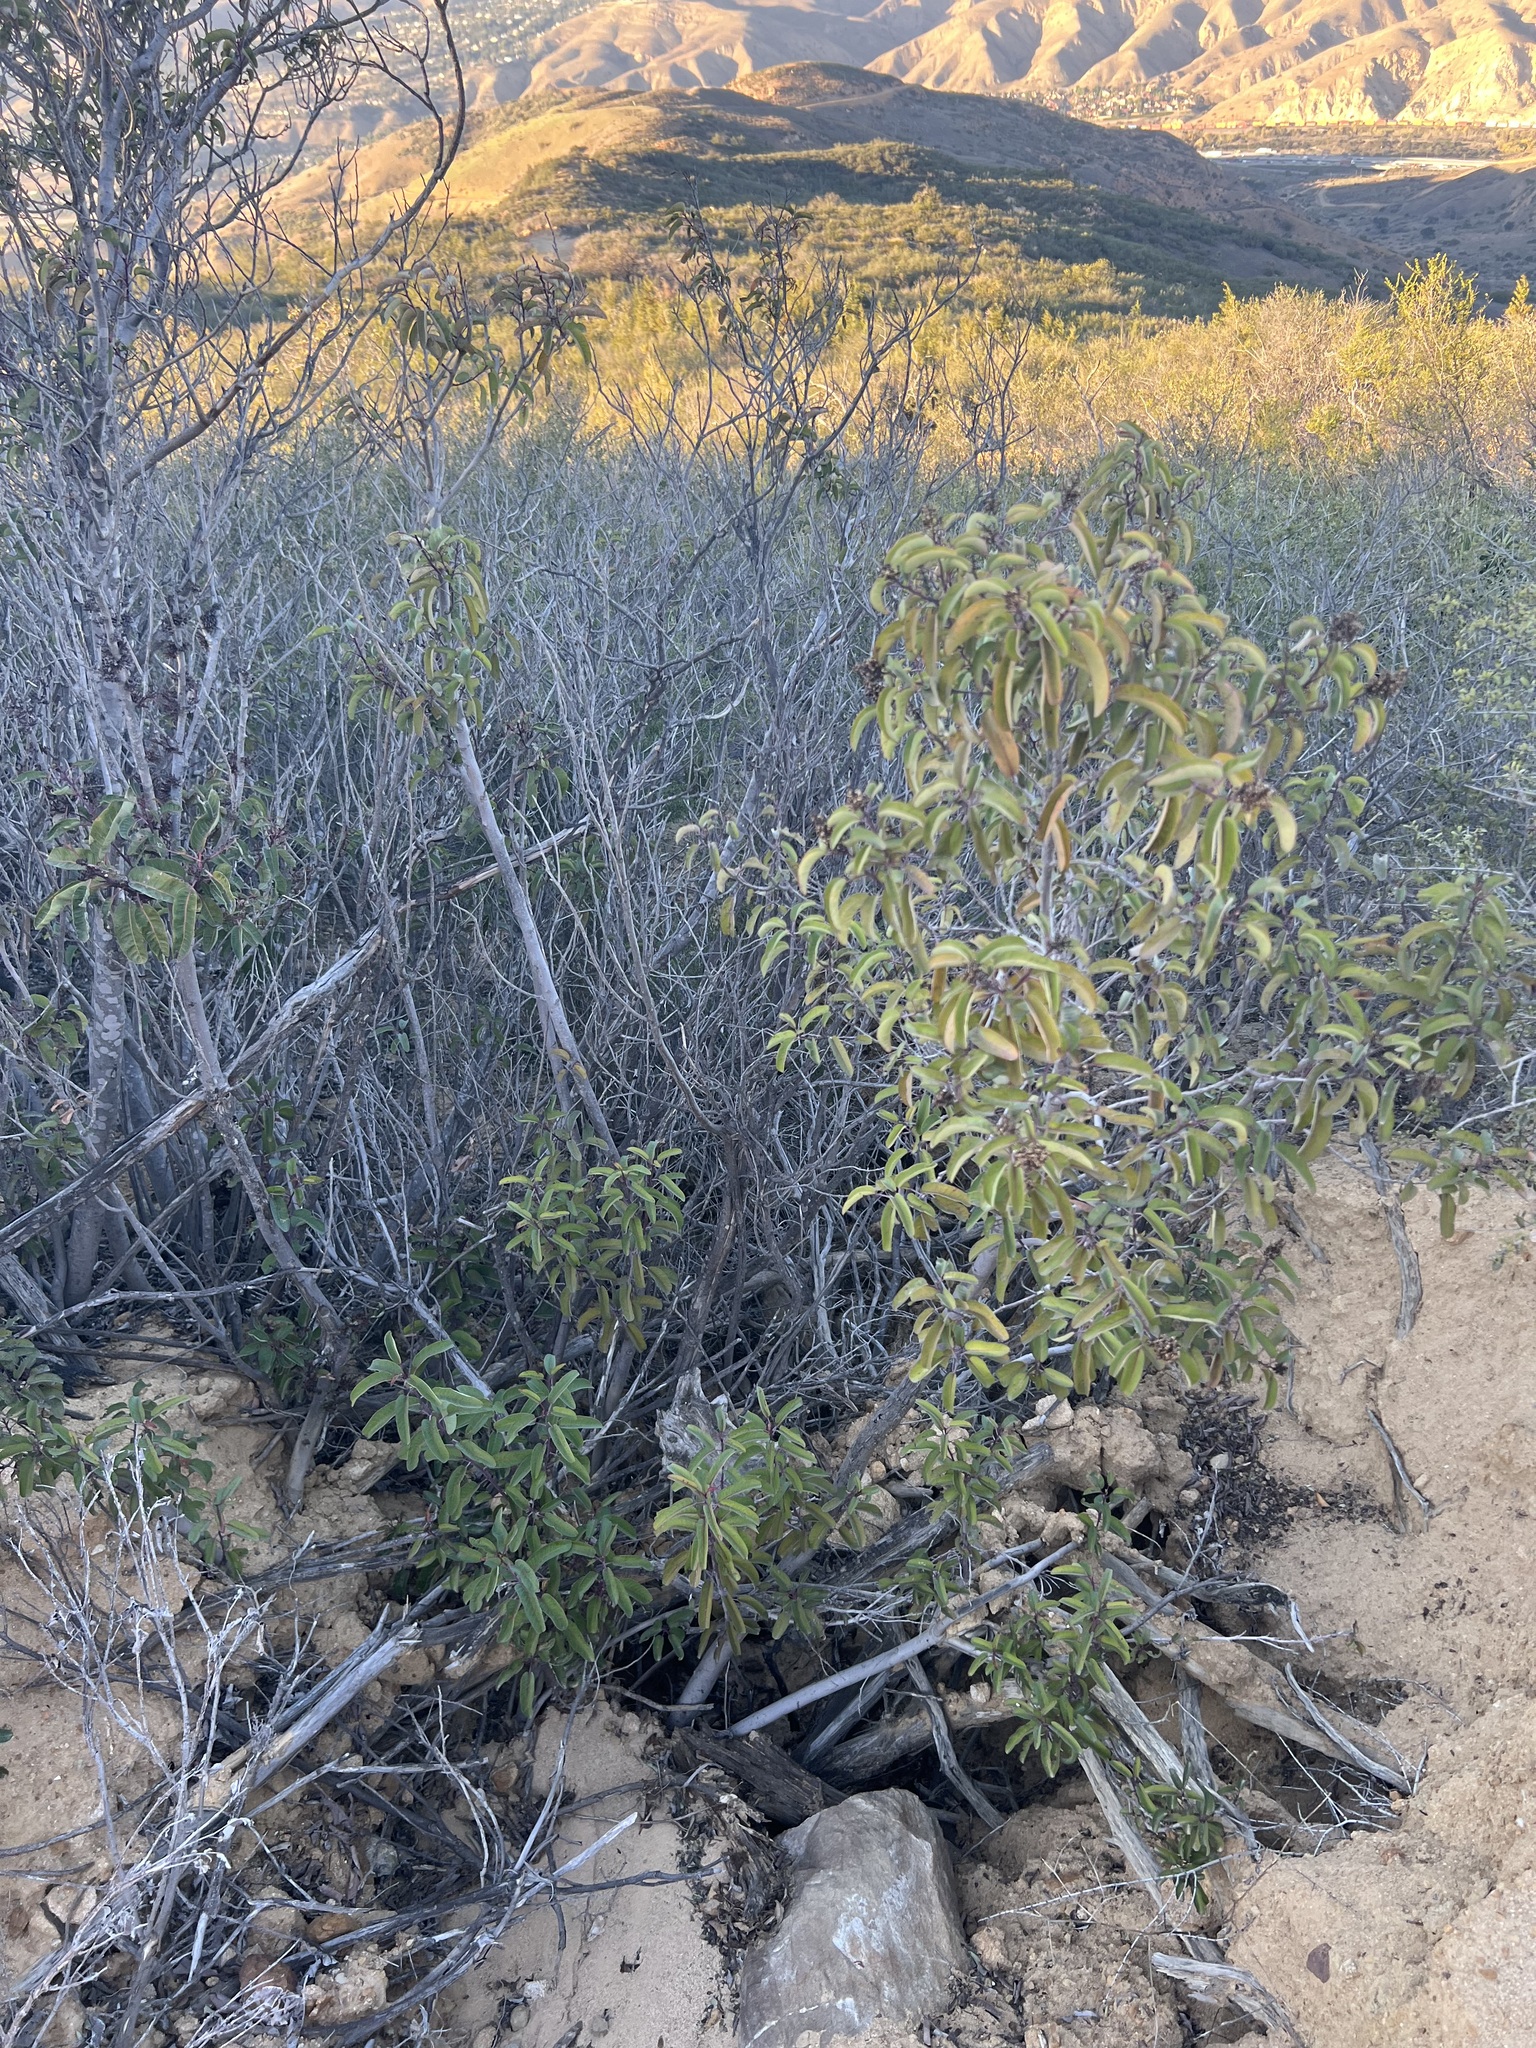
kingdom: Plantae
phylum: Tracheophyta
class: Magnoliopsida
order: Sapindales
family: Anacardiaceae
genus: Malosma
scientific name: Malosma laurina
